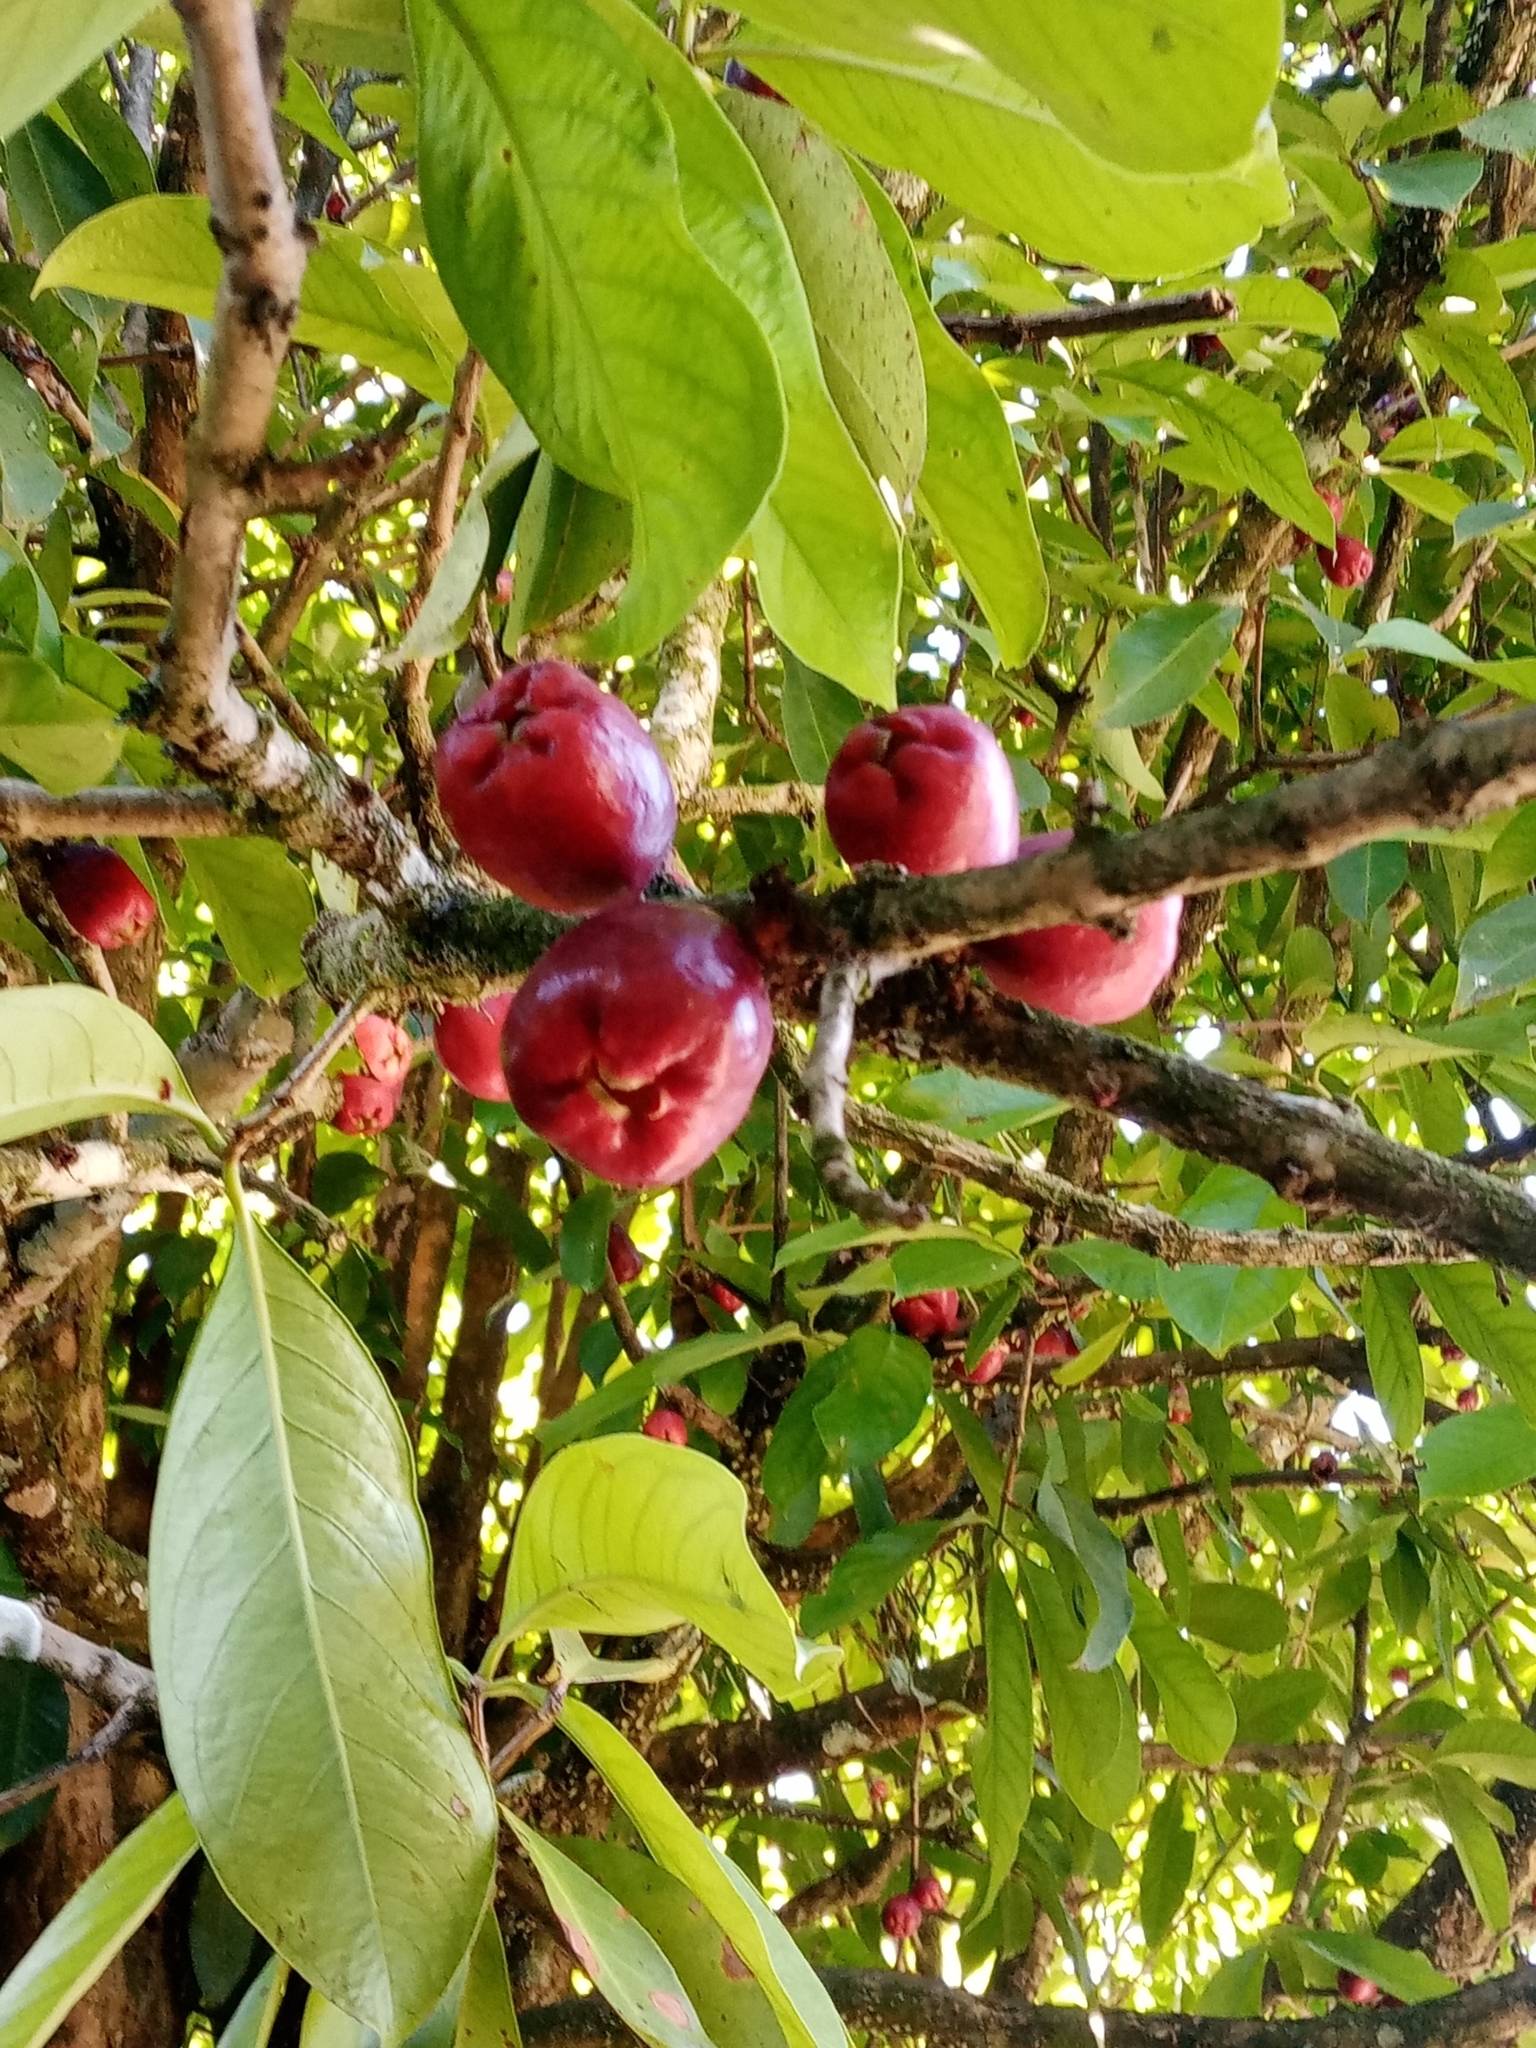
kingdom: Plantae
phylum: Tracheophyta
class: Magnoliopsida
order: Myrtales
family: Myrtaceae
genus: Syzygium
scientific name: Syzygium malaccense
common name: Malaysian apple
